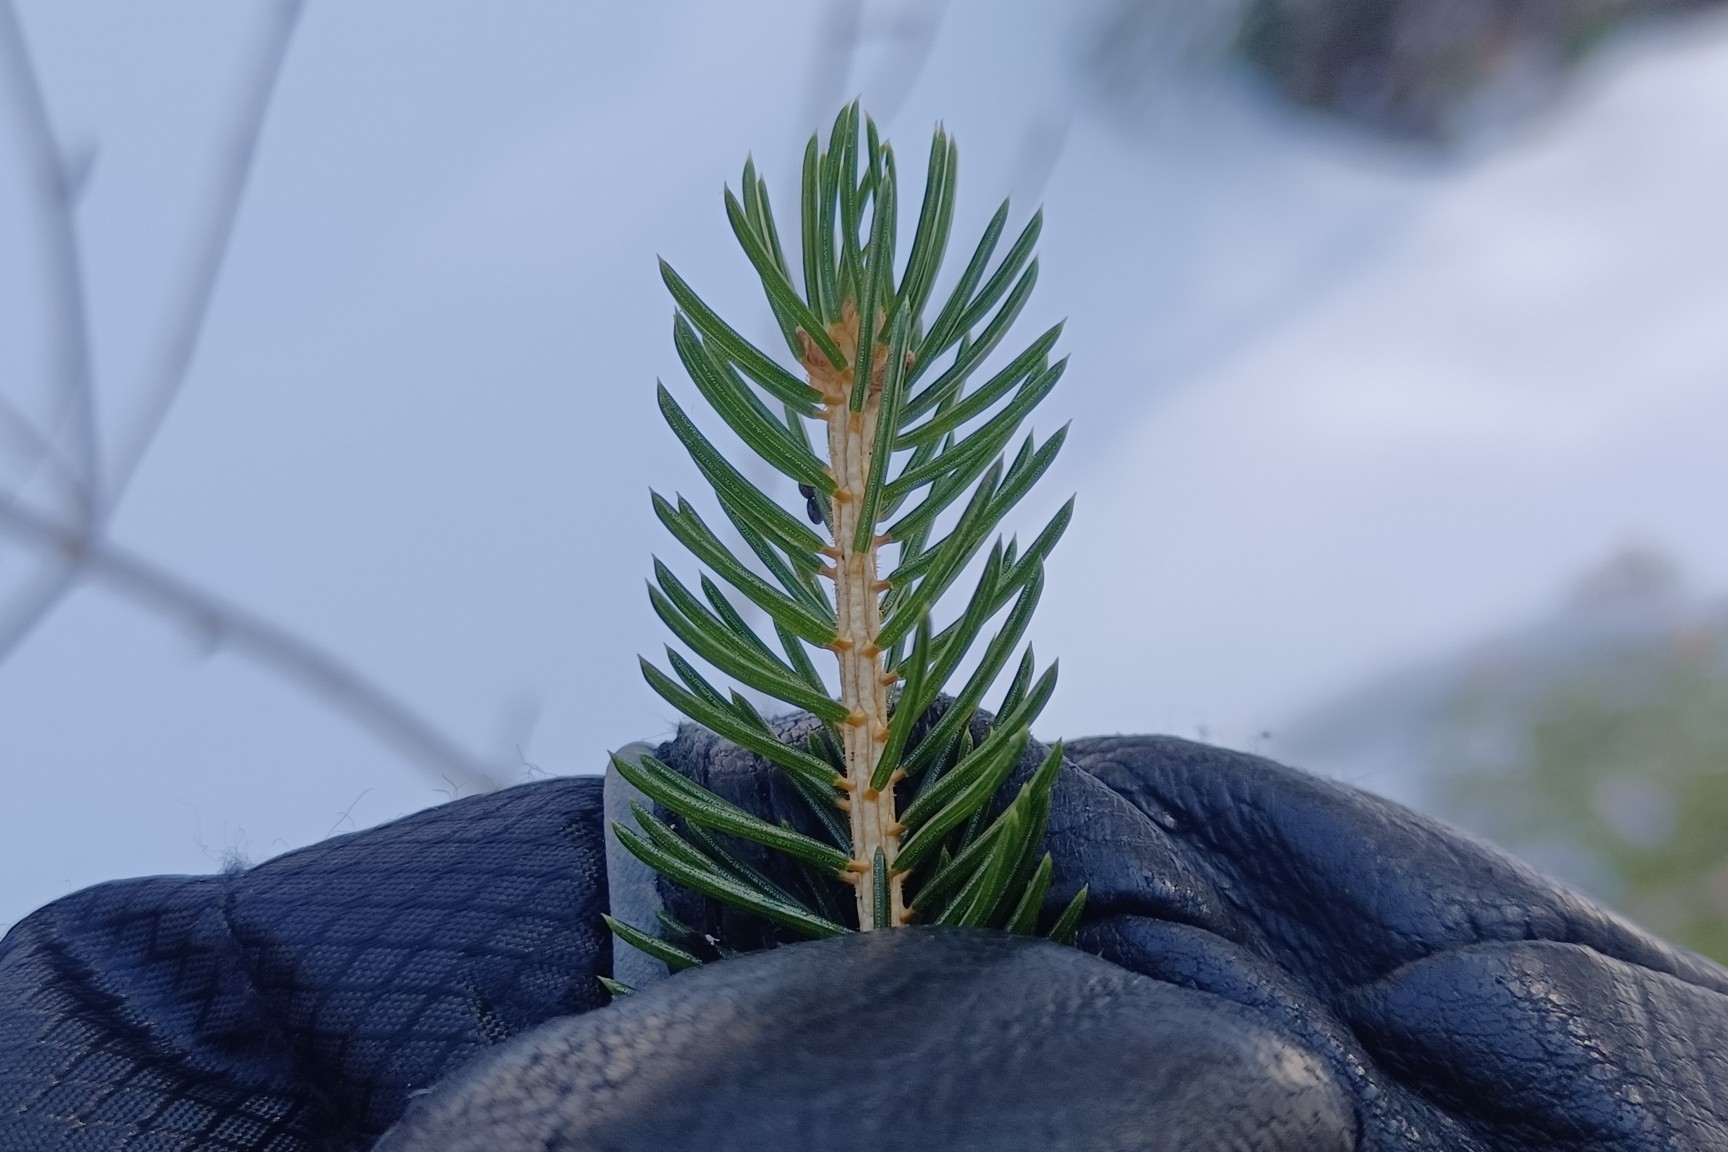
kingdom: Plantae
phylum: Tracheophyta
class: Pinopsida
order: Pinales
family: Pinaceae
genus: Picea
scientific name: Picea rubens
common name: Red spruce
